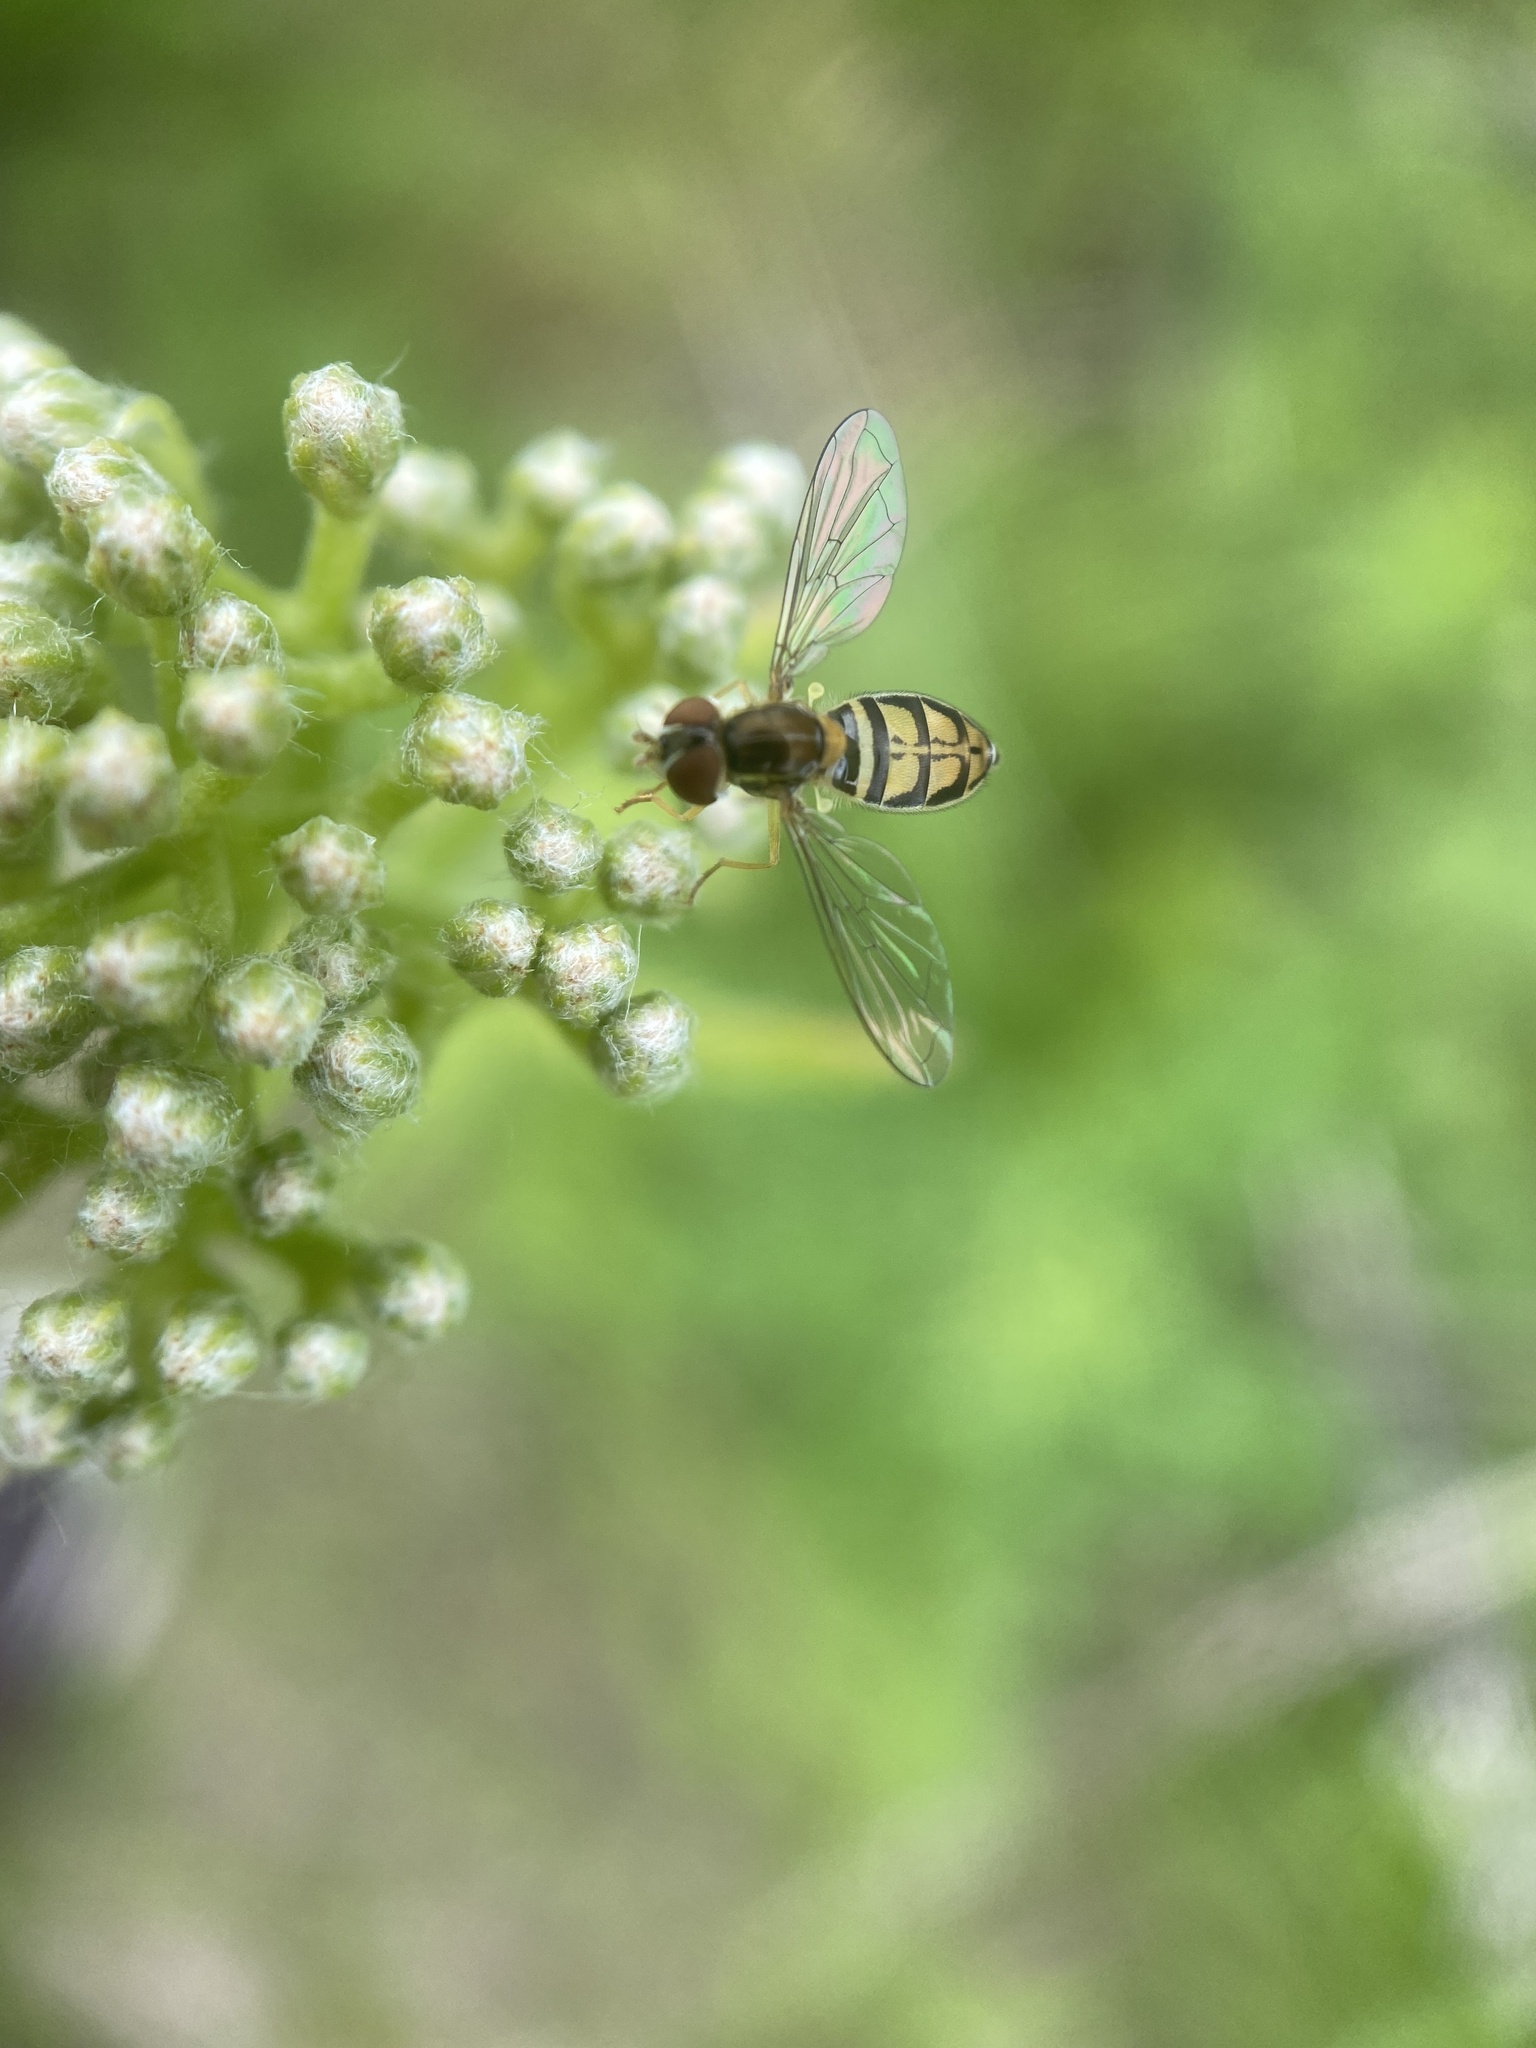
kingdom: Animalia
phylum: Arthropoda
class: Insecta
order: Diptera
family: Syrphidae
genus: Toxomerus
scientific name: Toxomerus marginatus
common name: Syrphid fly
